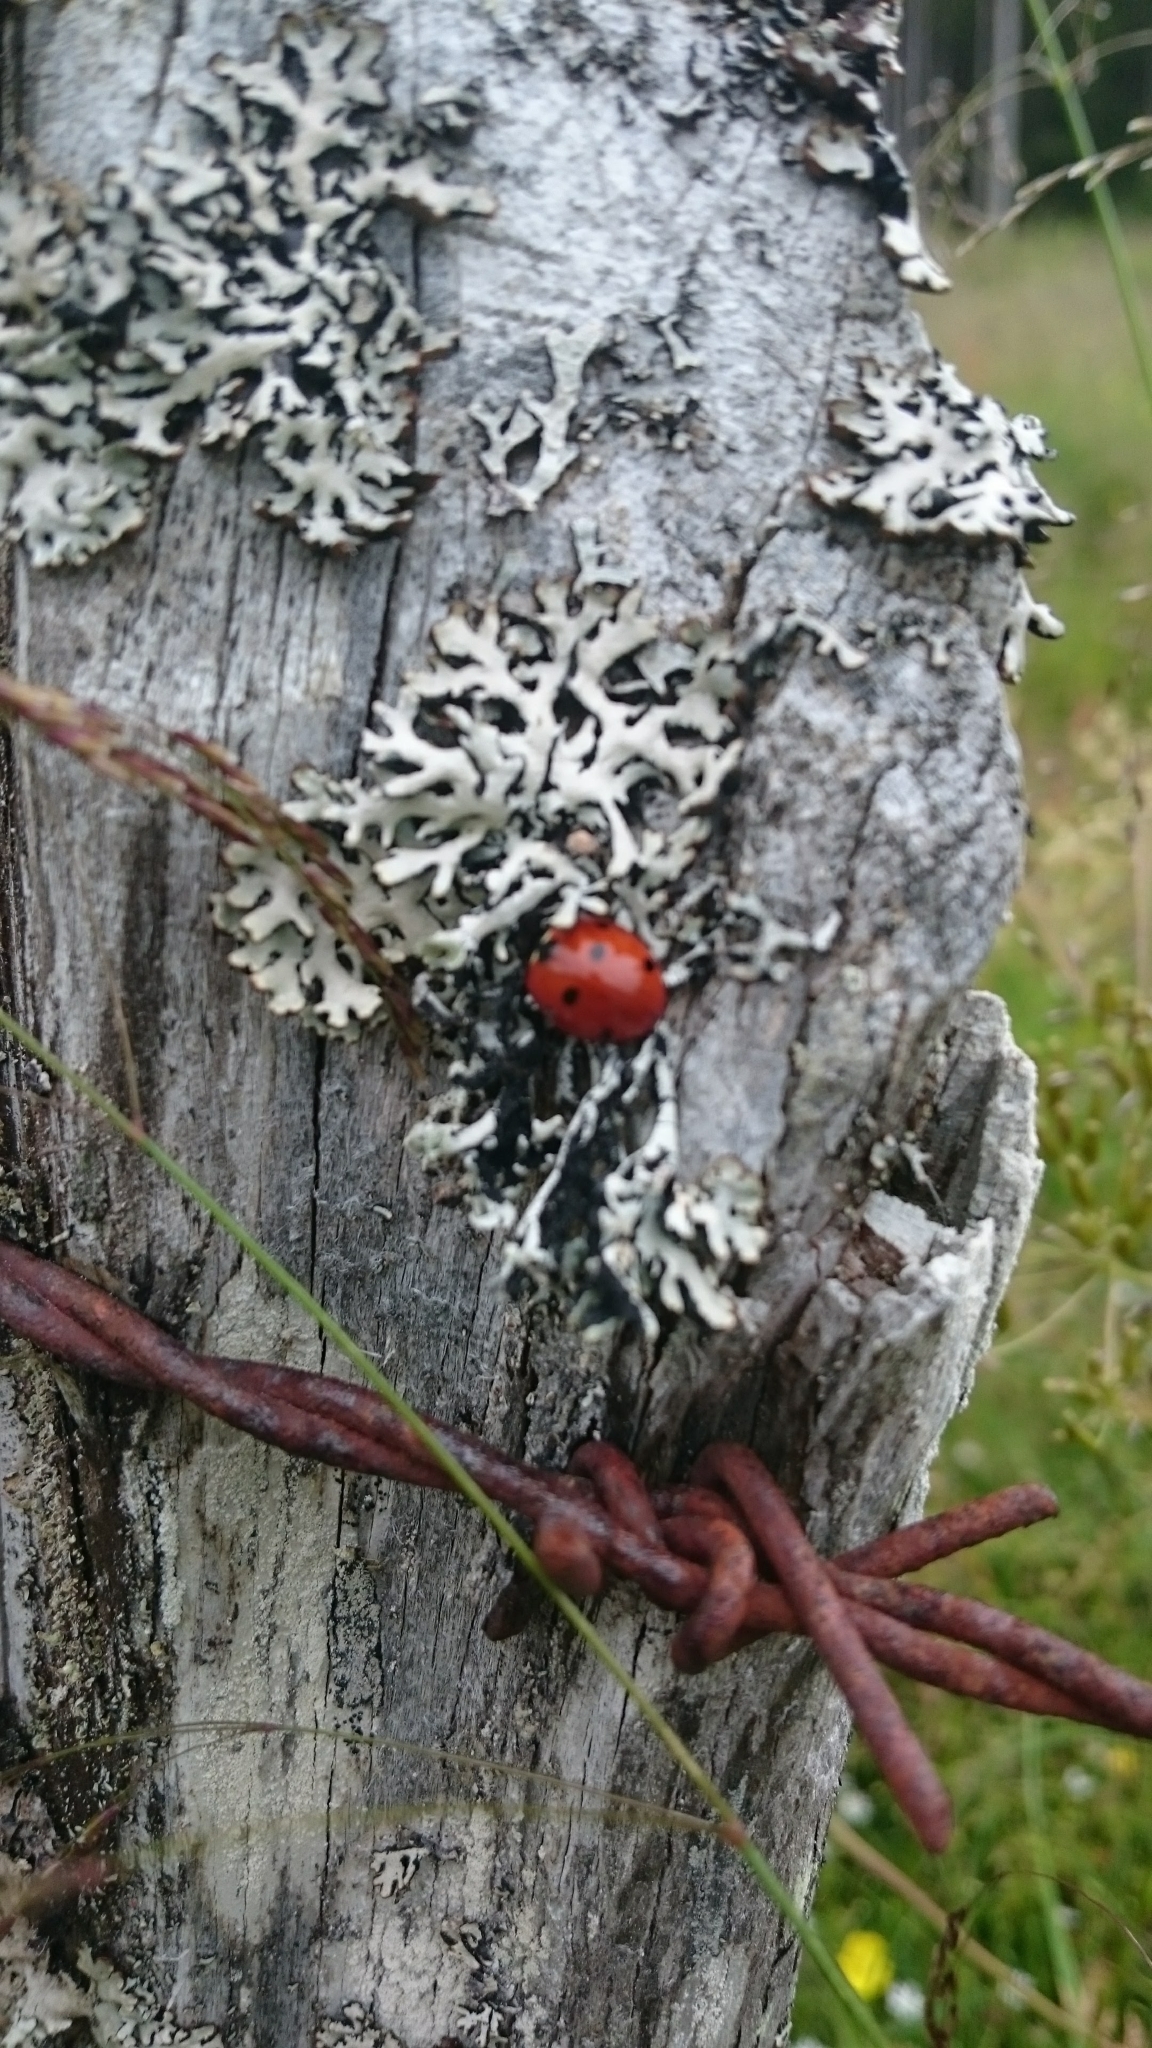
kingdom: Animalia
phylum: Arthropoda
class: Insecta
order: Coleoptera
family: Coccinellidae
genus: Coccinella
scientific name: Coccinella septempunctata
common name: Sevenspotted lady beetle
